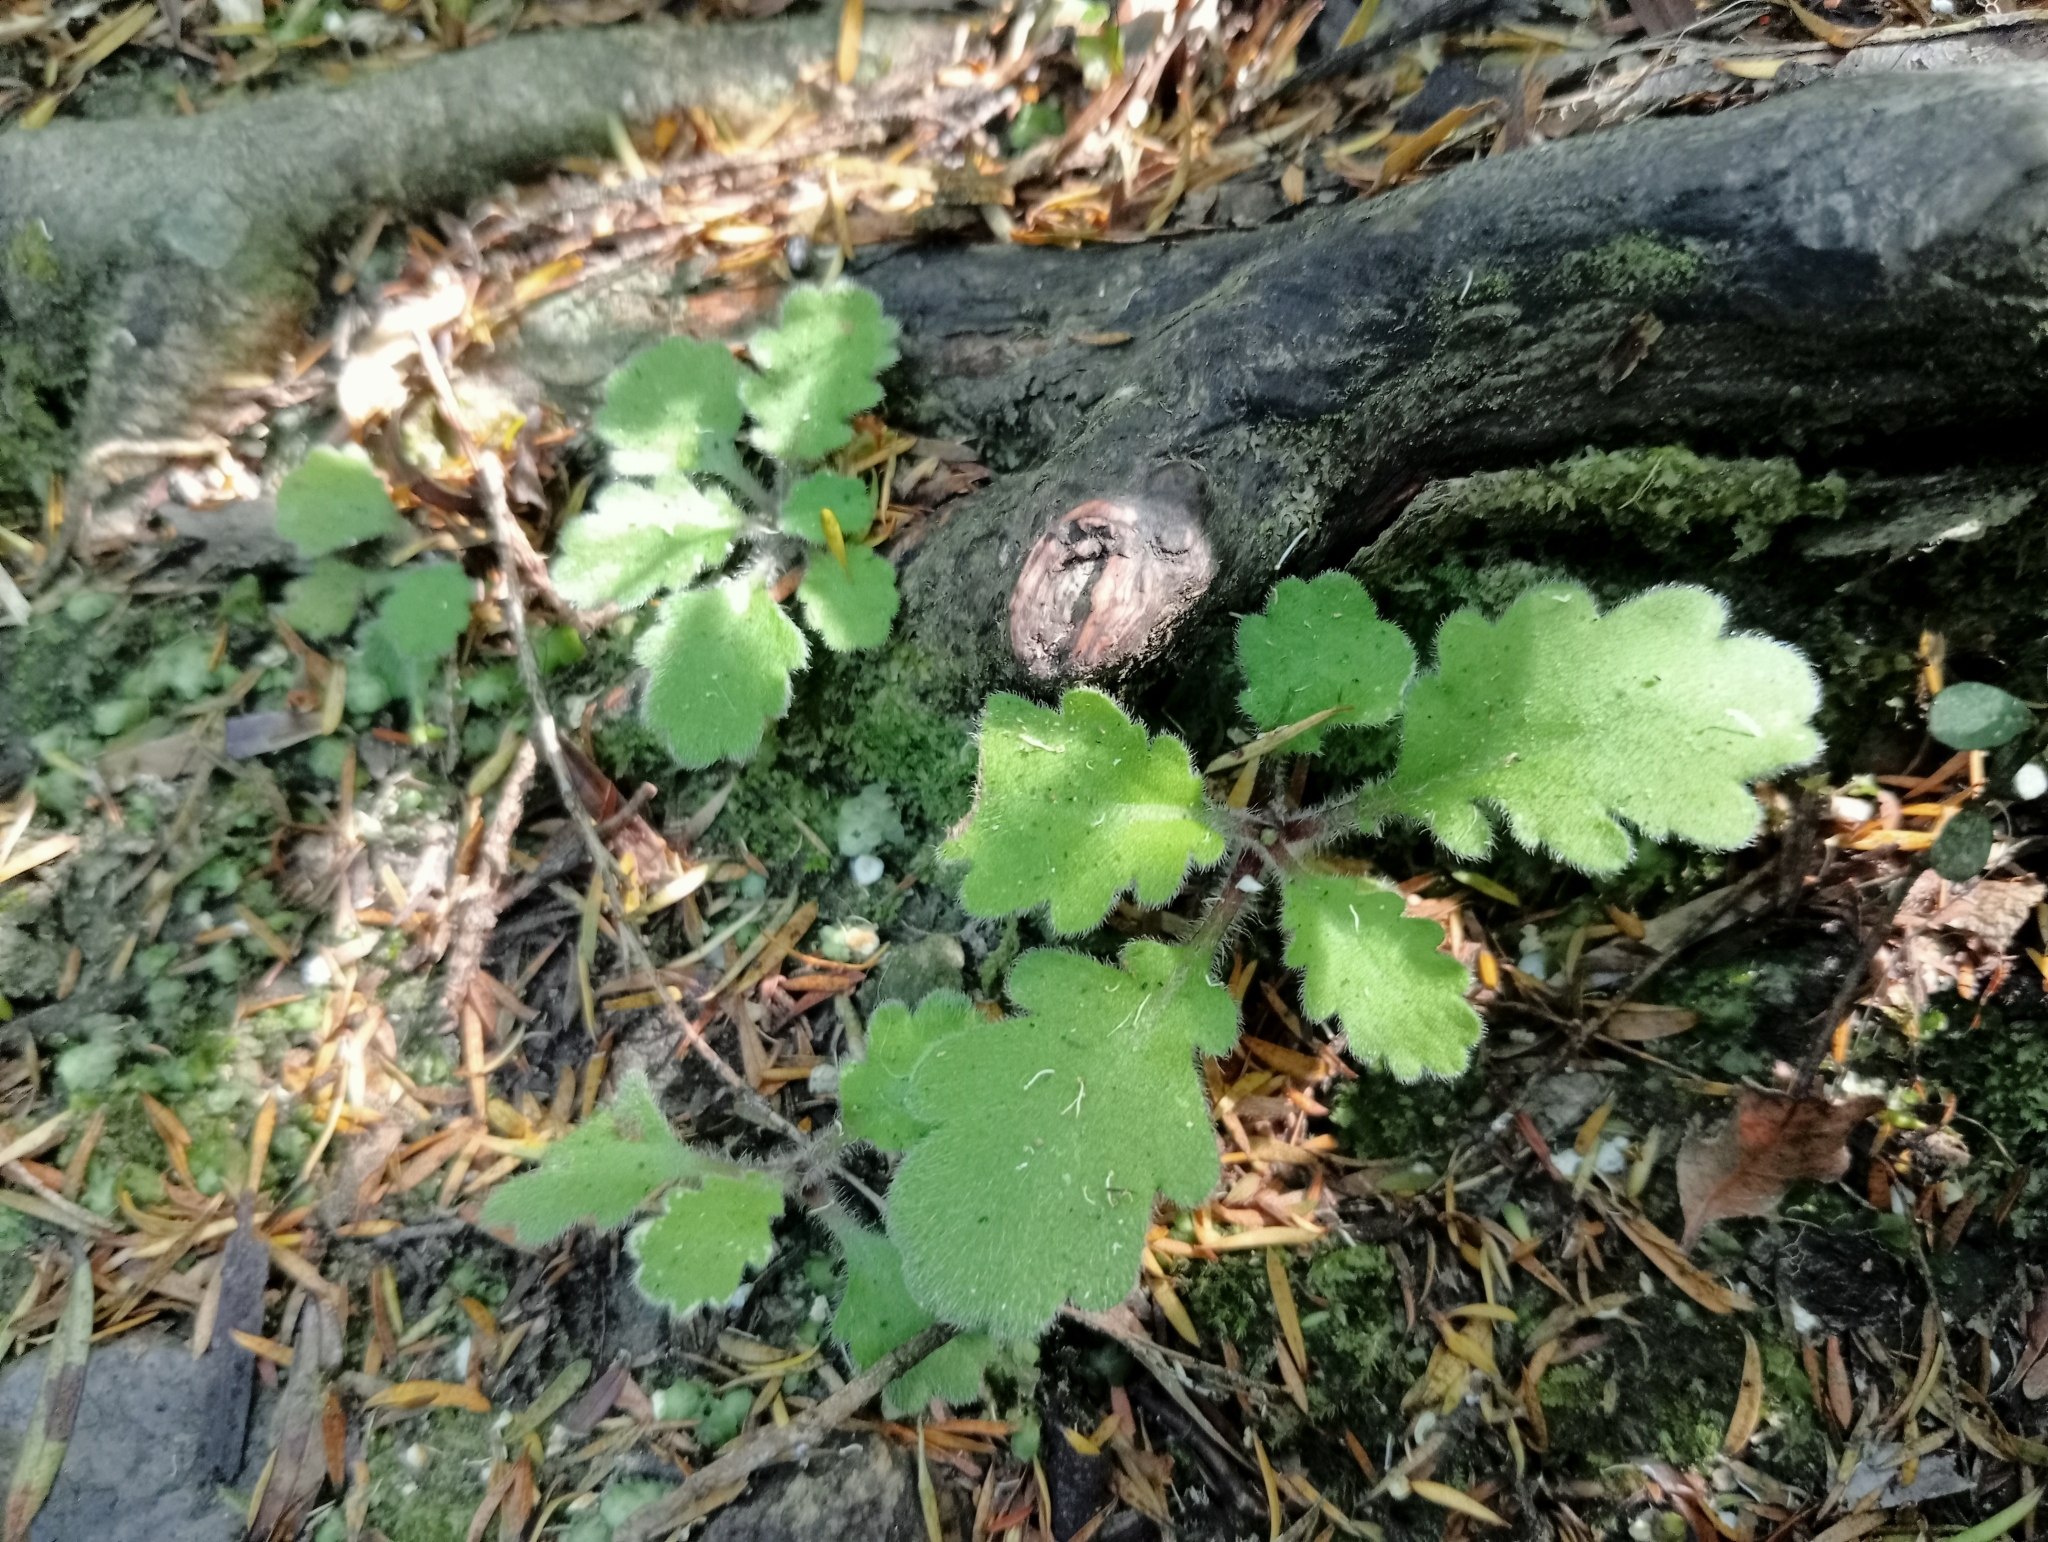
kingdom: Plantae
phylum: Tracheophyta
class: Magnoliopsida
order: Asterales
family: Asteraceae
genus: Lagenophora
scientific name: Lagenophora pinnatifida
